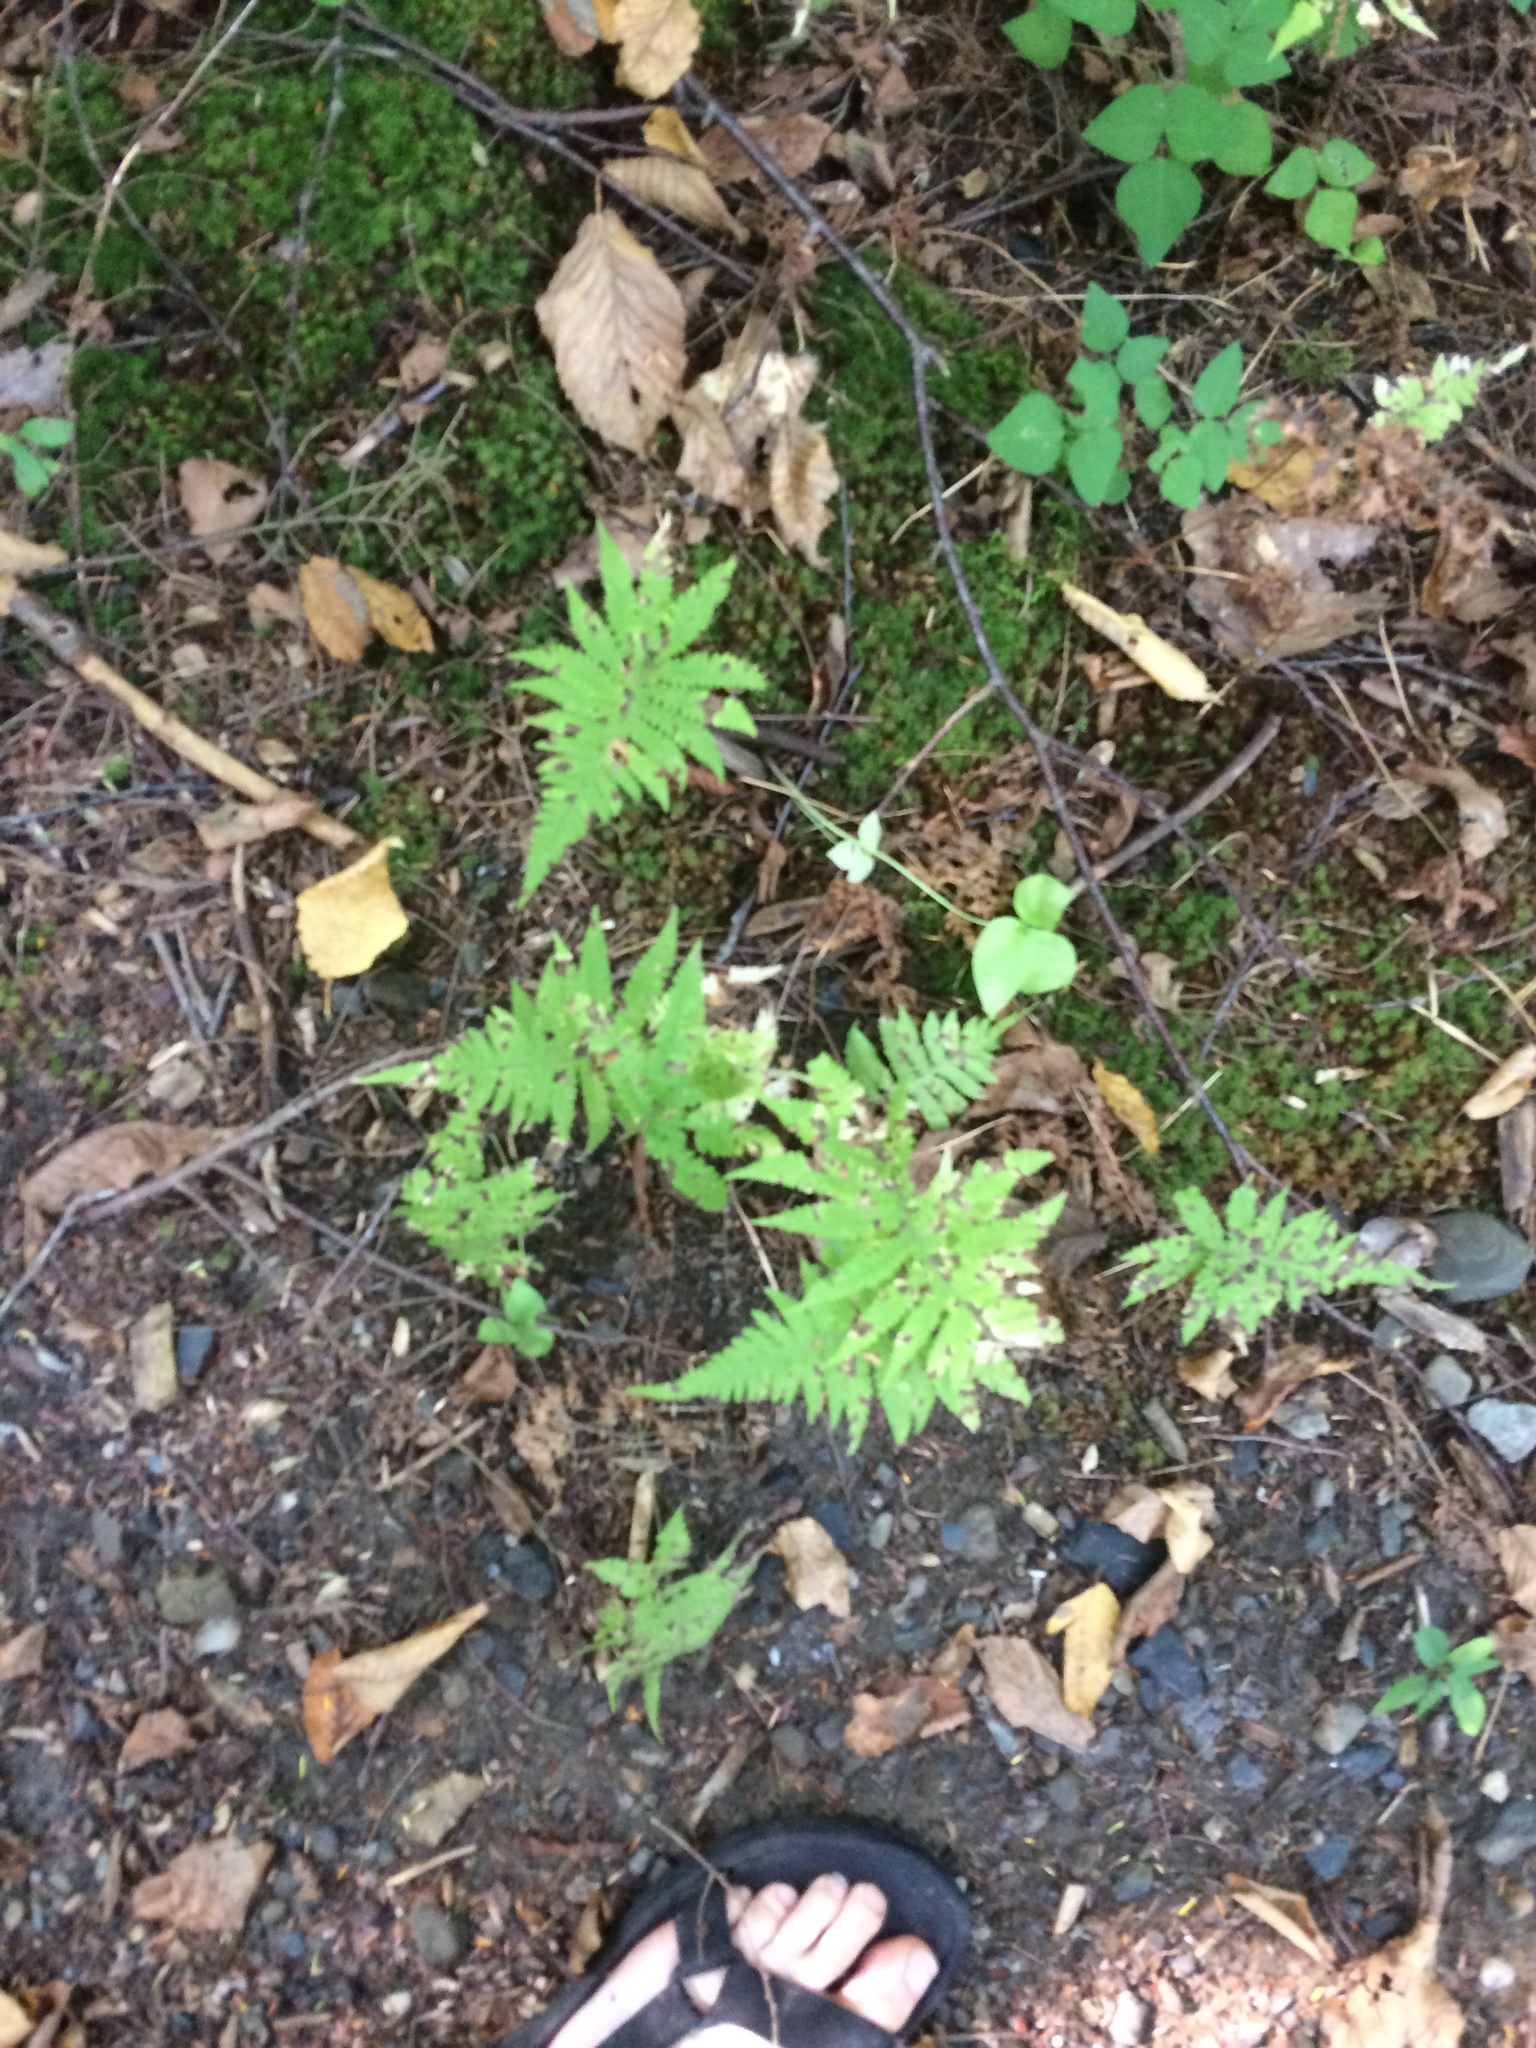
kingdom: Plantae
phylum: Tracheophyta
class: Polypodiopsida
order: Polypodiales
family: Thelypteridaceae
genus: Phegopteris
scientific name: Phegopteris connectilis
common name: Beech fern
